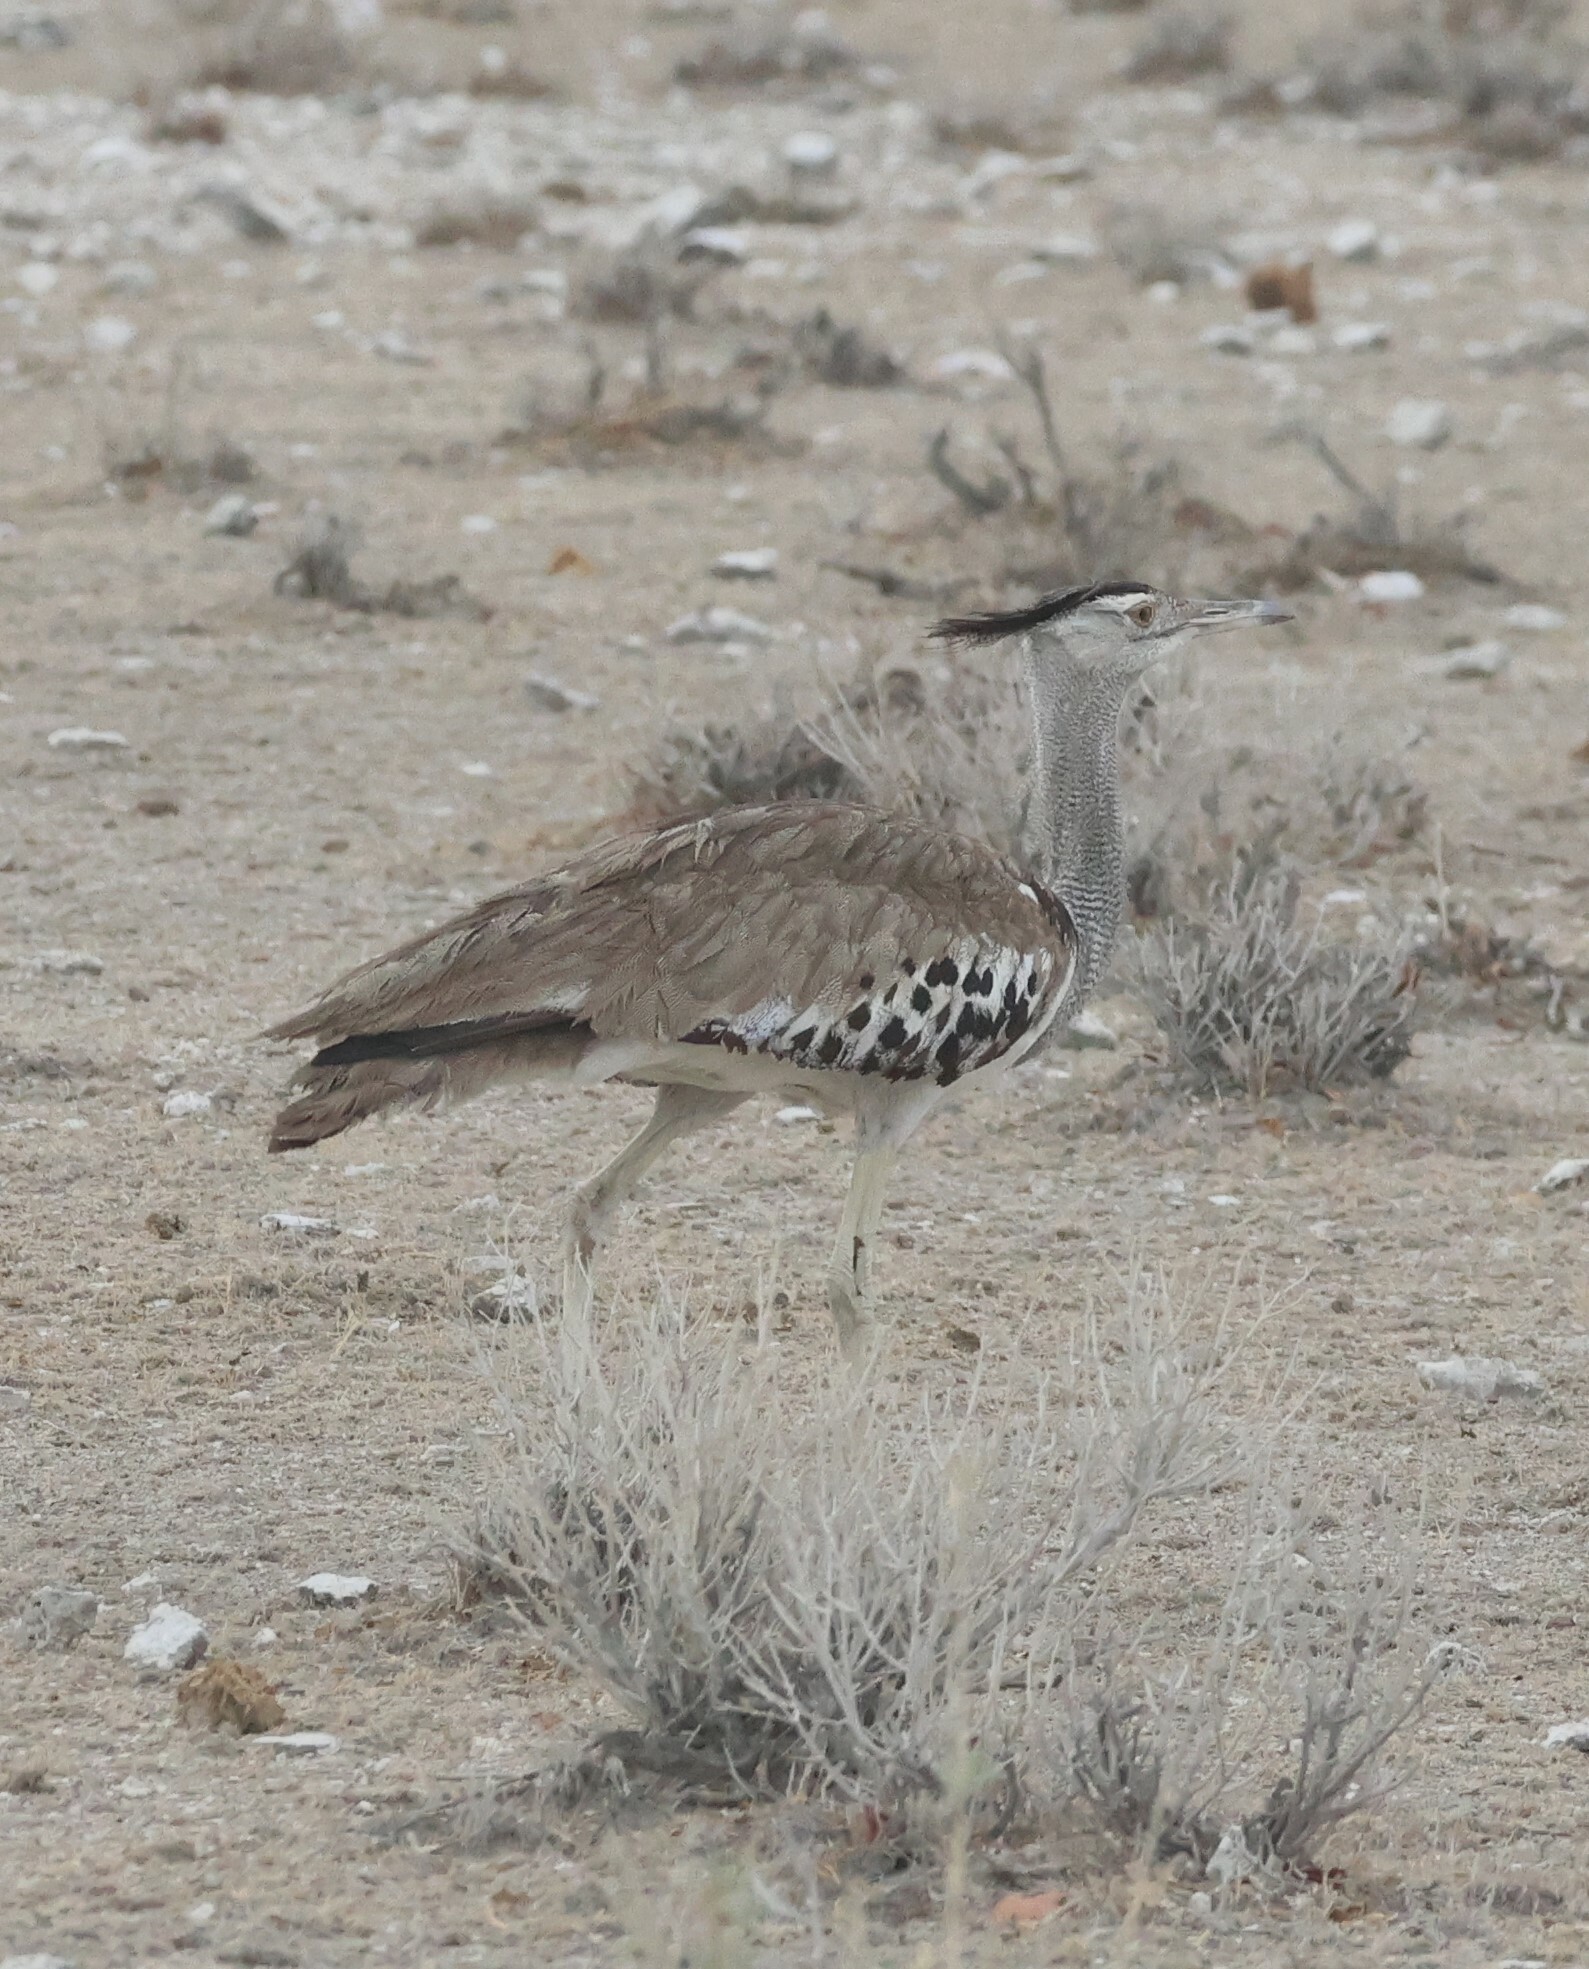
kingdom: Animalia
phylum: Chordata
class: Aves
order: Otidiformes
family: Otididae
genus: Ardeotis
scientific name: Ardeotis kori
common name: Kori bustard
